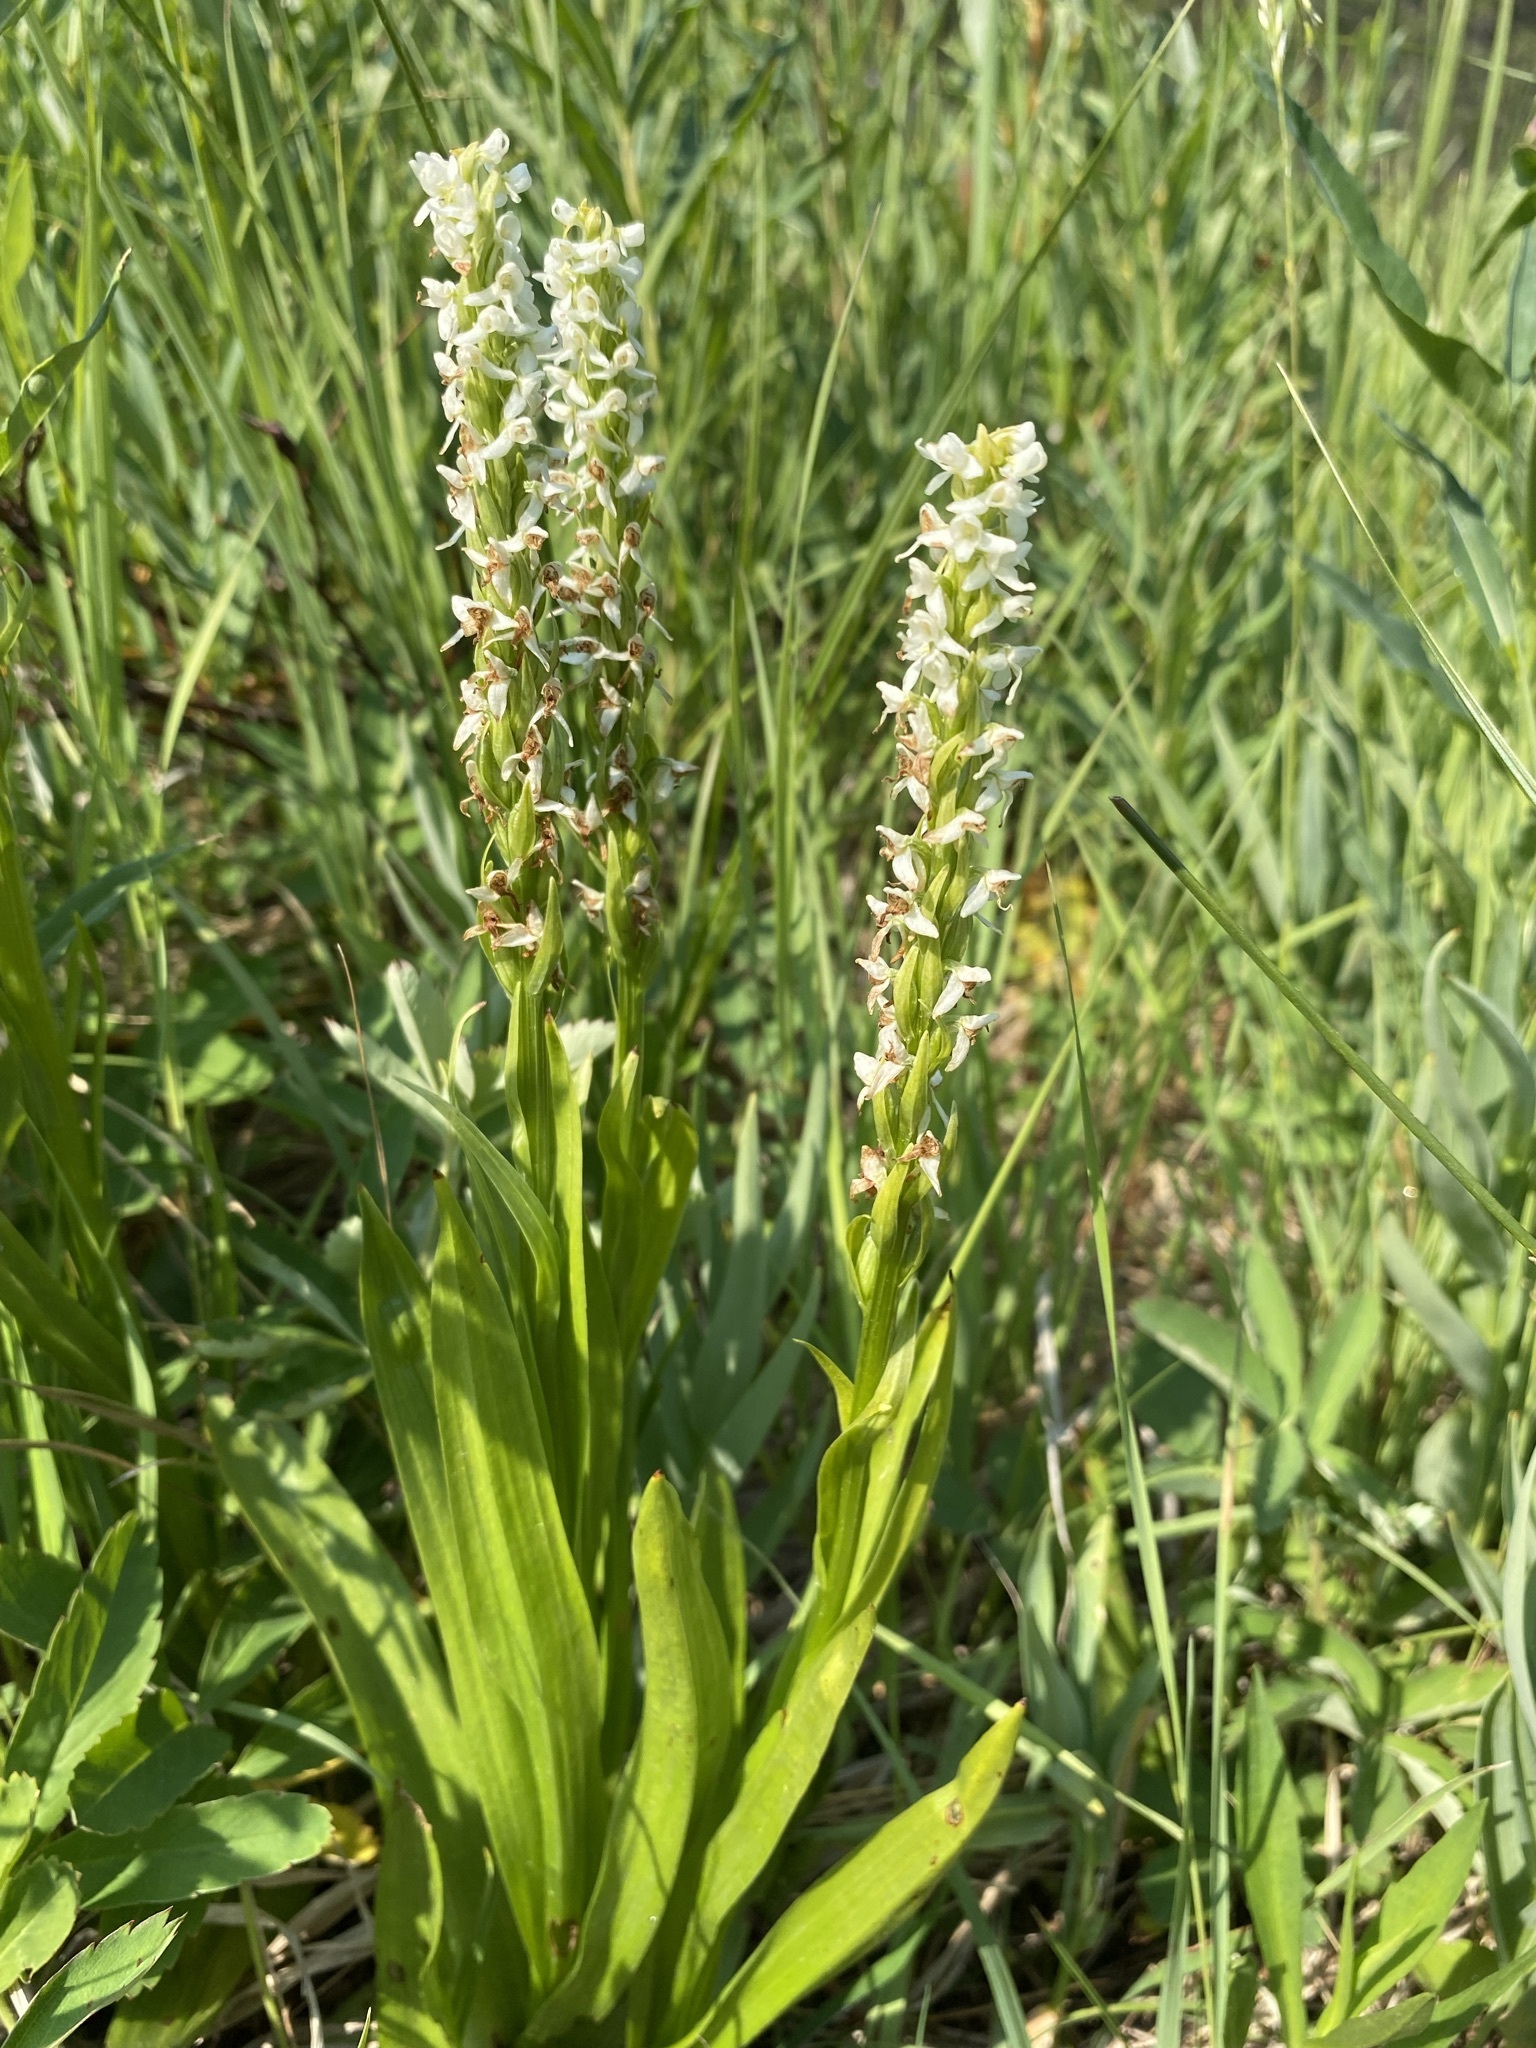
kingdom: Plantae
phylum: Tracheophyta
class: Liliopsida
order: Asparagales
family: Orchidaceae
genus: Platanthera
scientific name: Platanthera dilatata
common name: Bog candles
